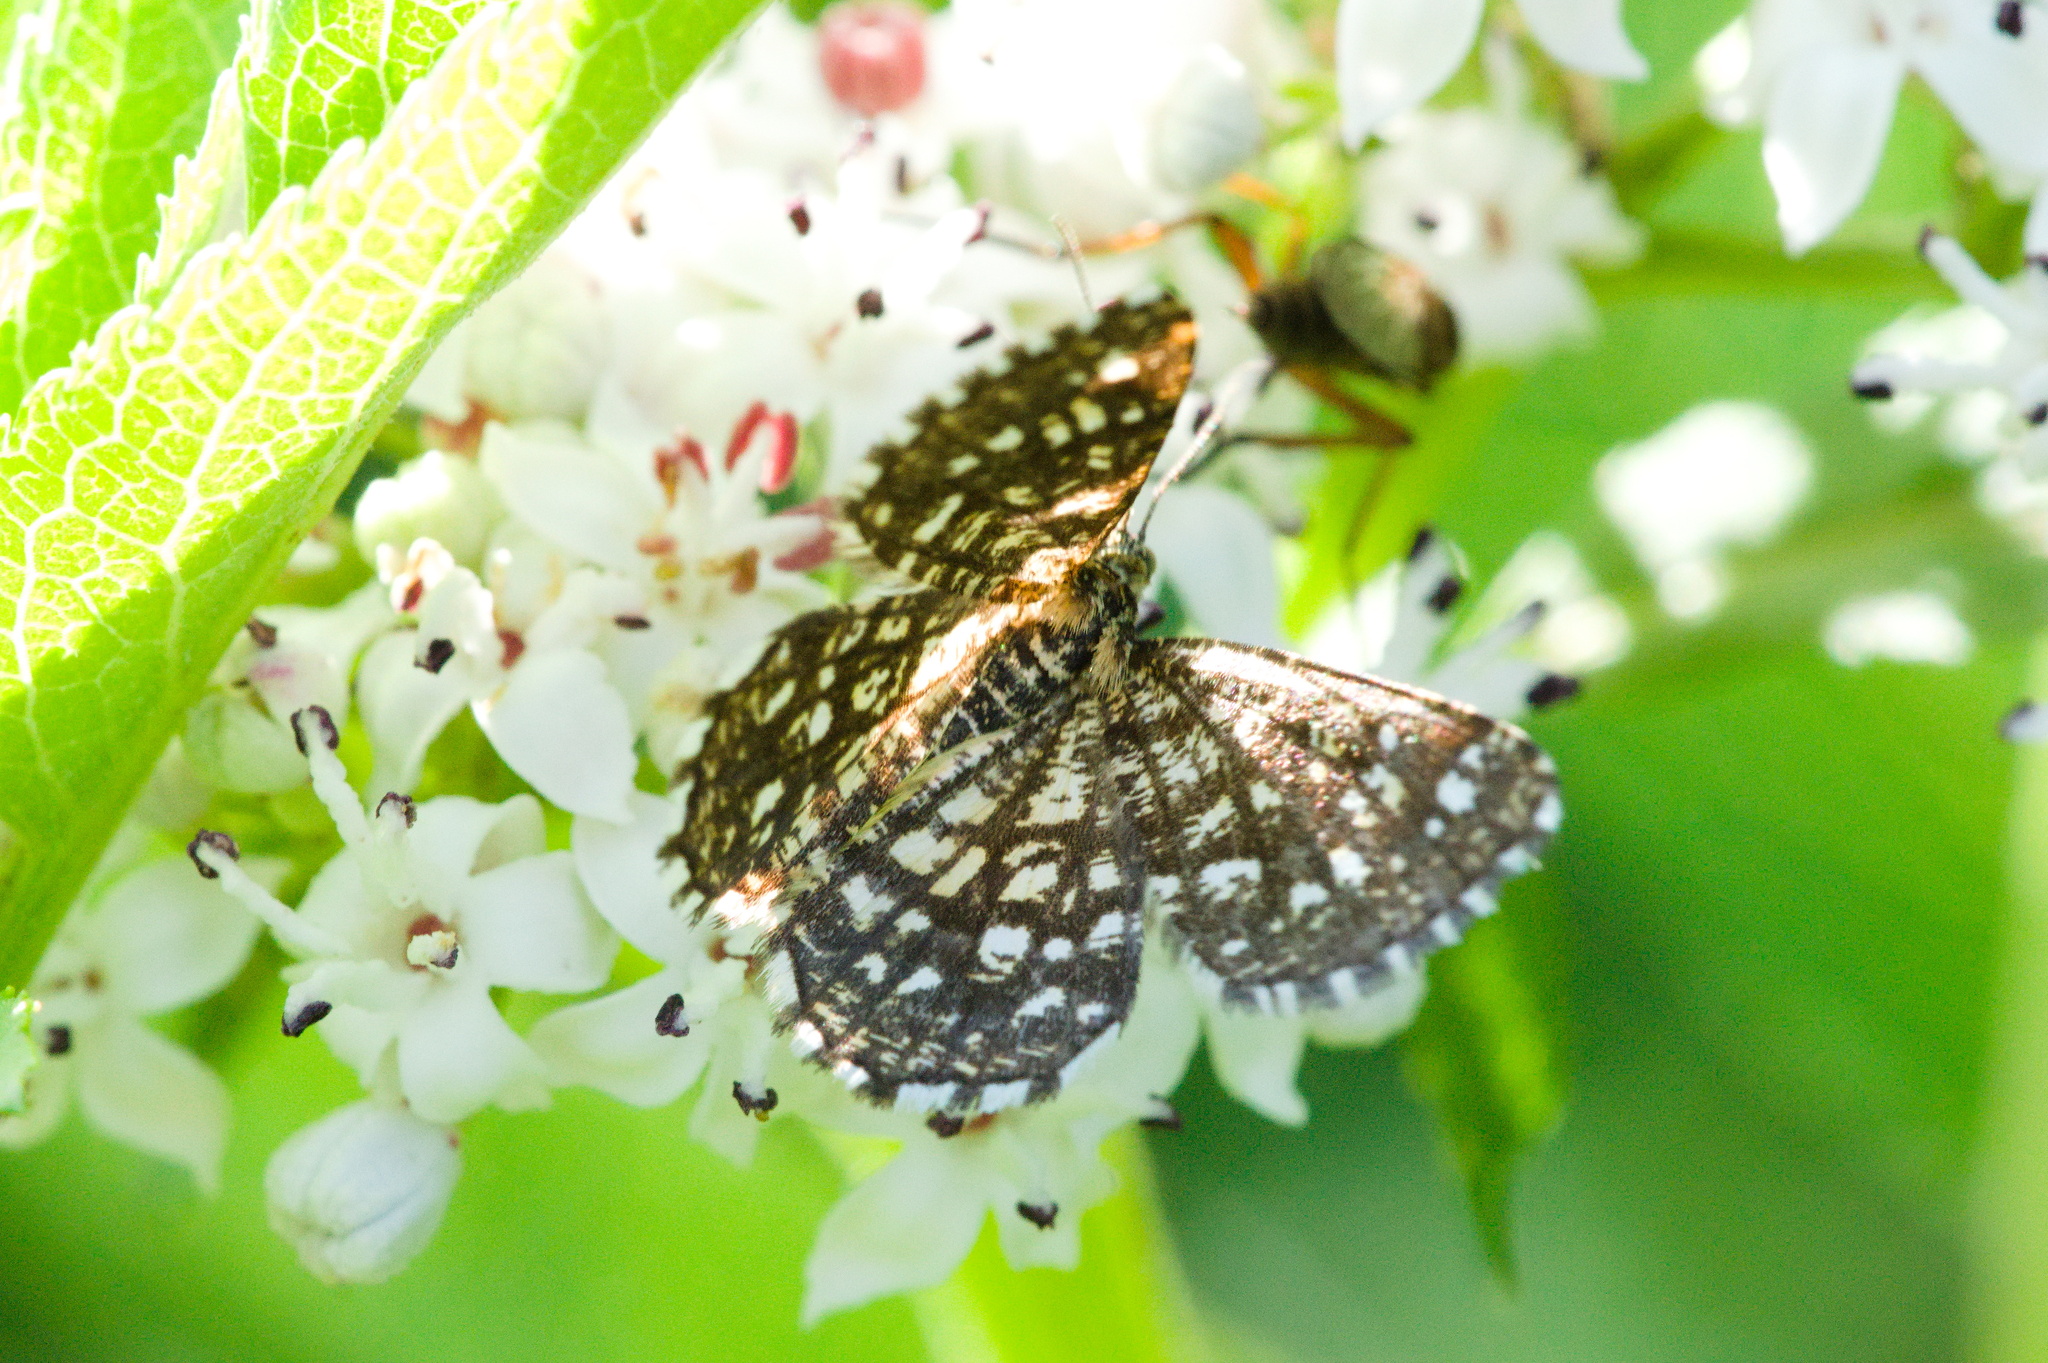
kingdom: Animalia
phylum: Arthropoda
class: Insecta
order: Lepidoptera
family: Geometridae
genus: Chiasmia
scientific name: Chiasmia clathrata
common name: Latticed heath
